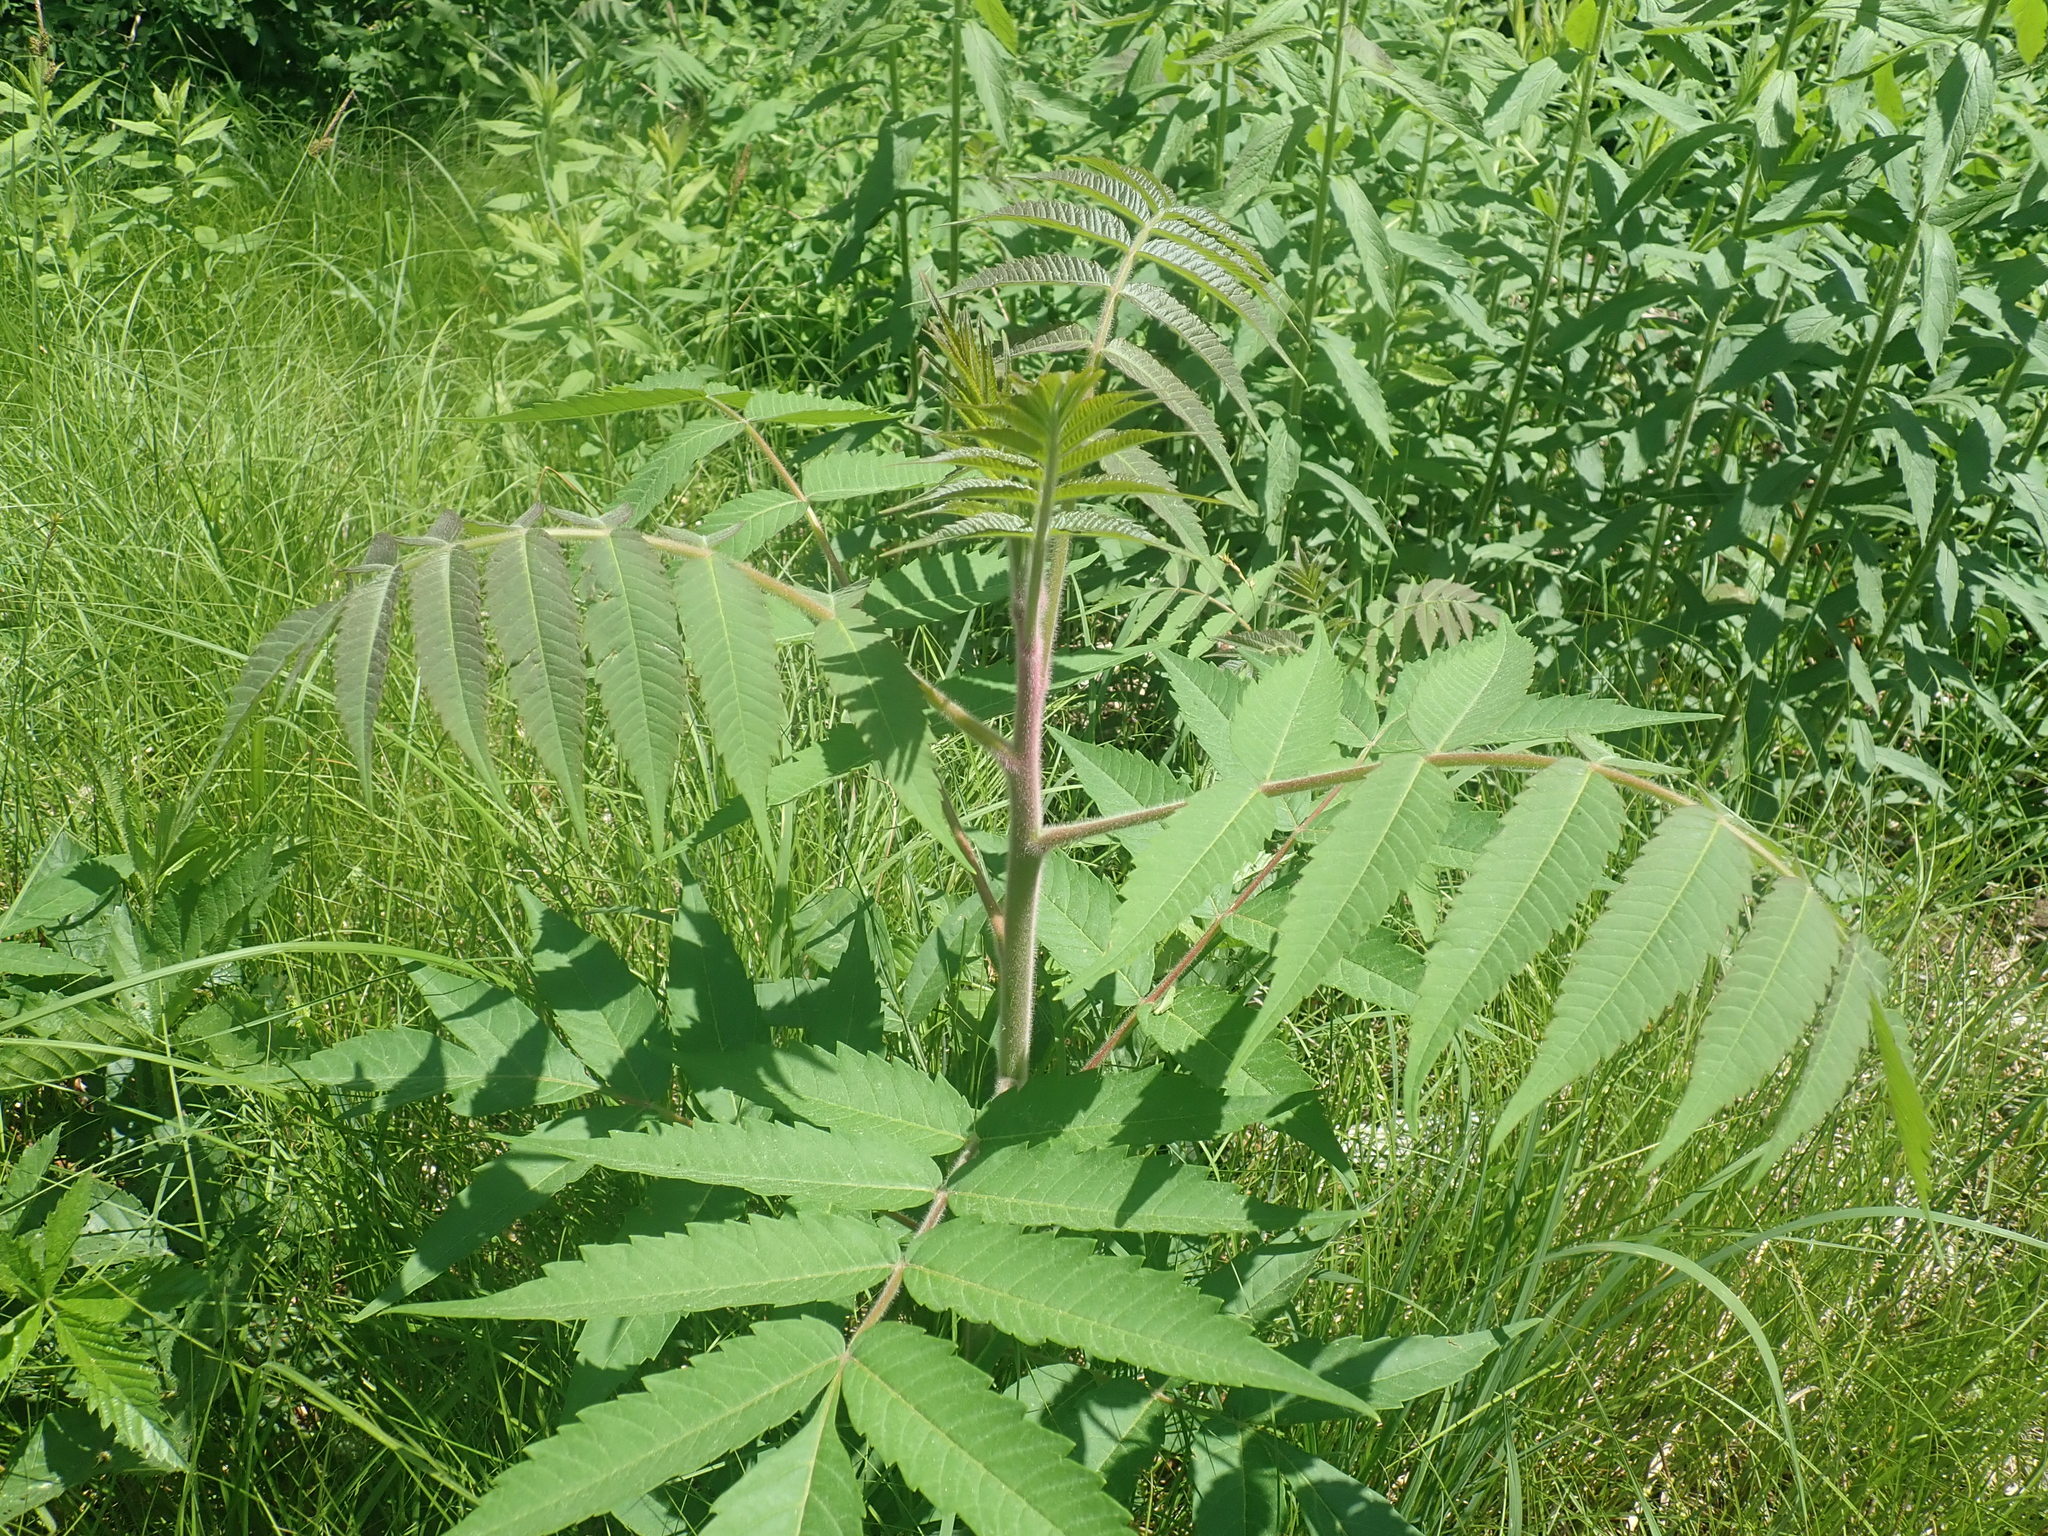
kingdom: Plantae
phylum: Tracheophyta
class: Magnoliopsida
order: Sapindales
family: Anacardiaceae
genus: Rhus
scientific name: Rhus typhina
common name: Staghorn sumac
